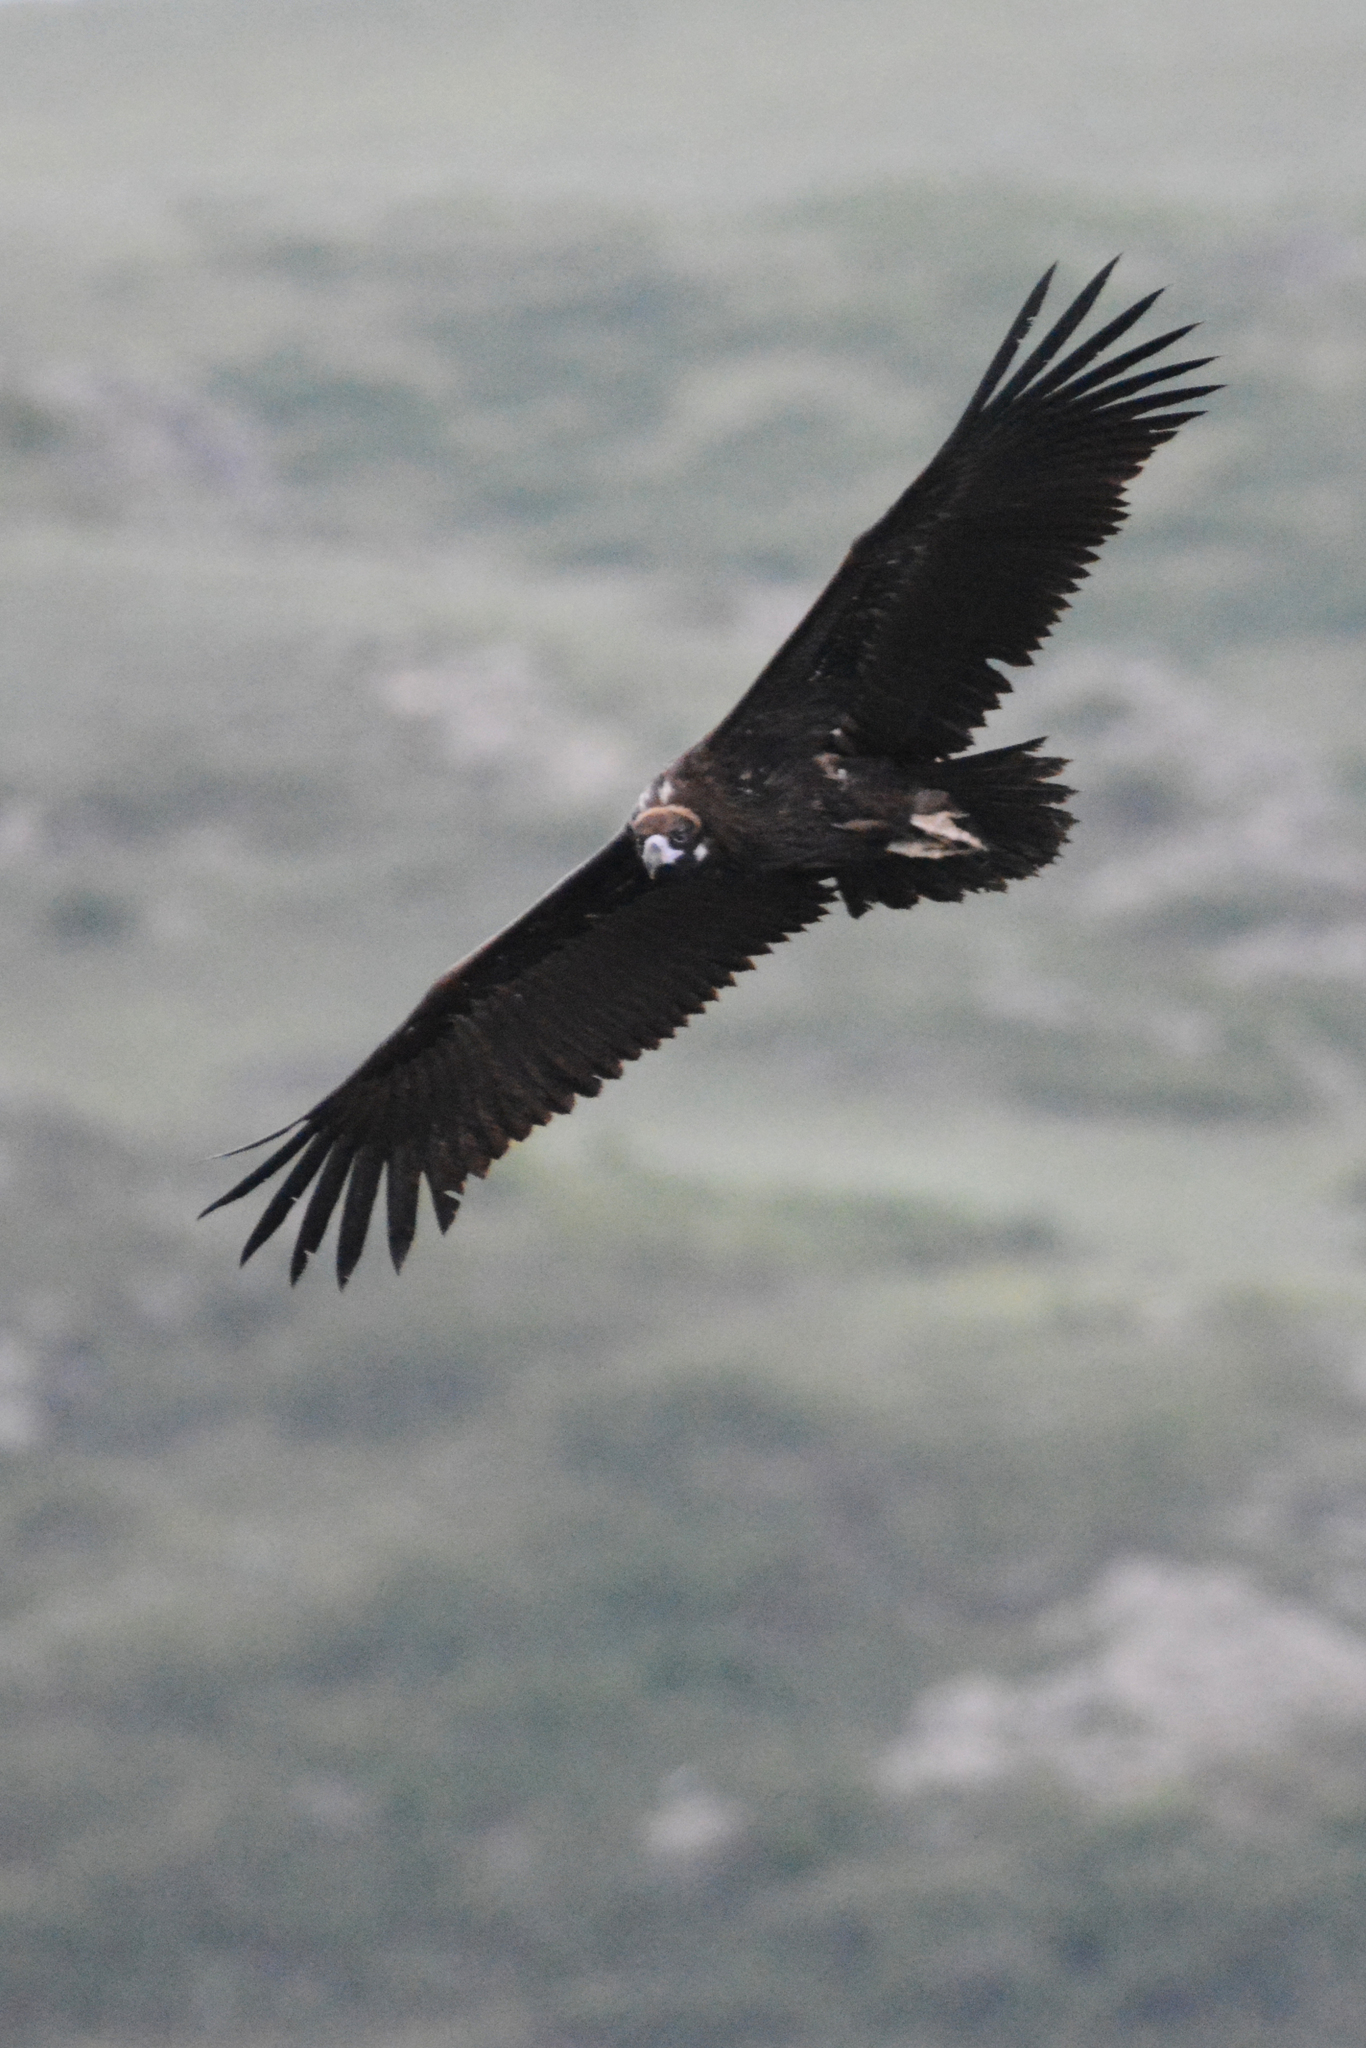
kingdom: Animalia
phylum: Chordata
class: Aves
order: Accipitriformes
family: Accipitridae
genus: Aegypius
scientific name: Aegypius monachus
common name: Cinereous vulture
